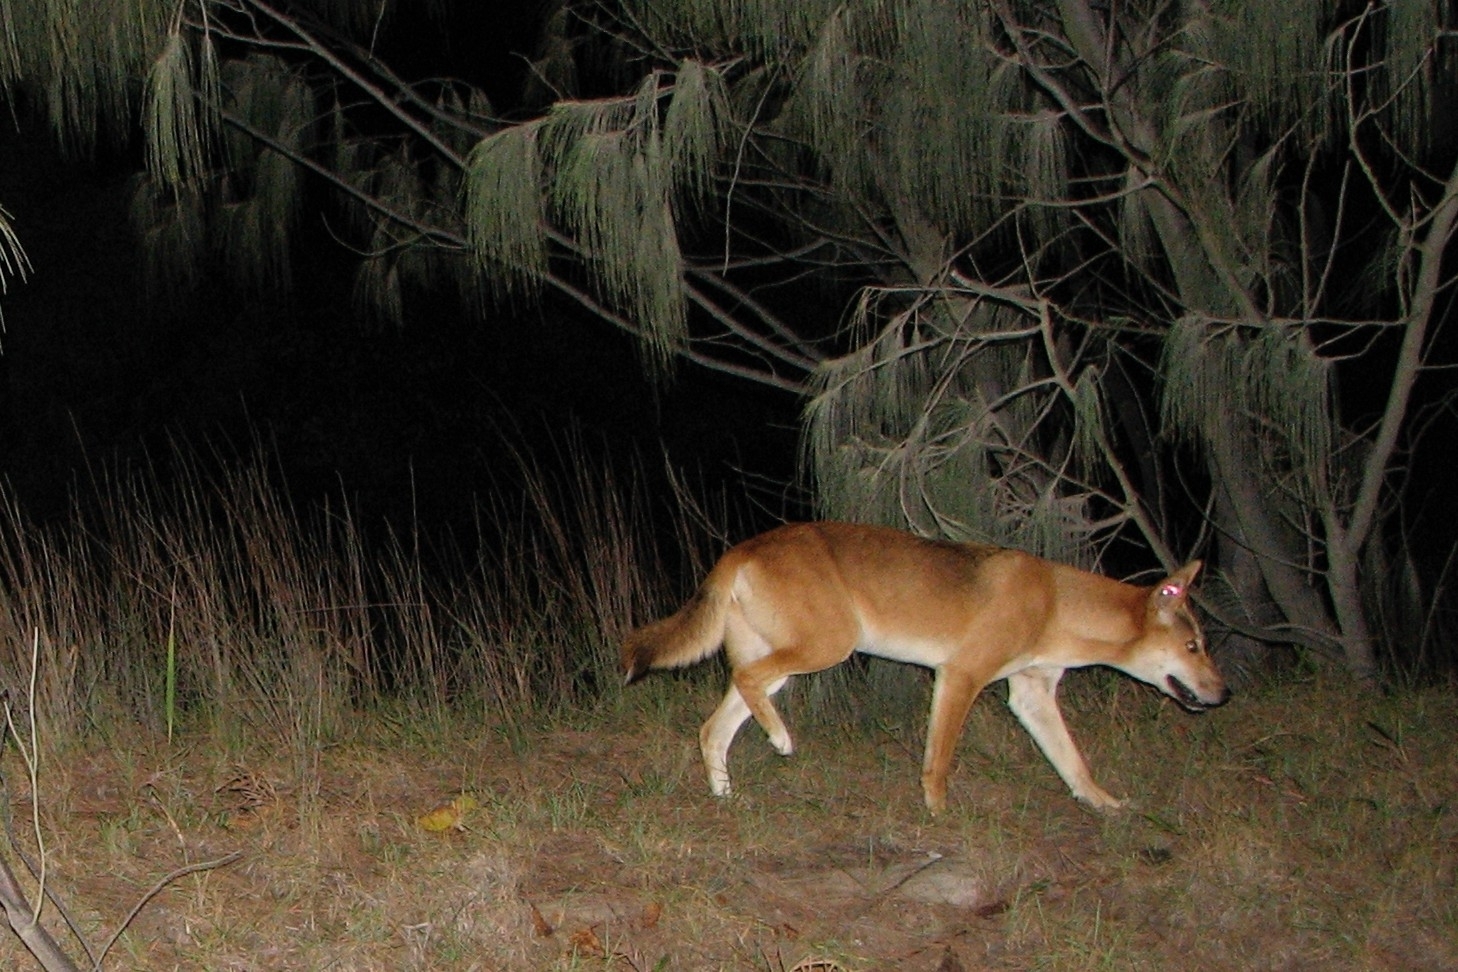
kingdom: Animalia
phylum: Chordata
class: Mammalia
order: Carnivora
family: Canidae
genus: Canis
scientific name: Canis lupus
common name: Gray wolf
